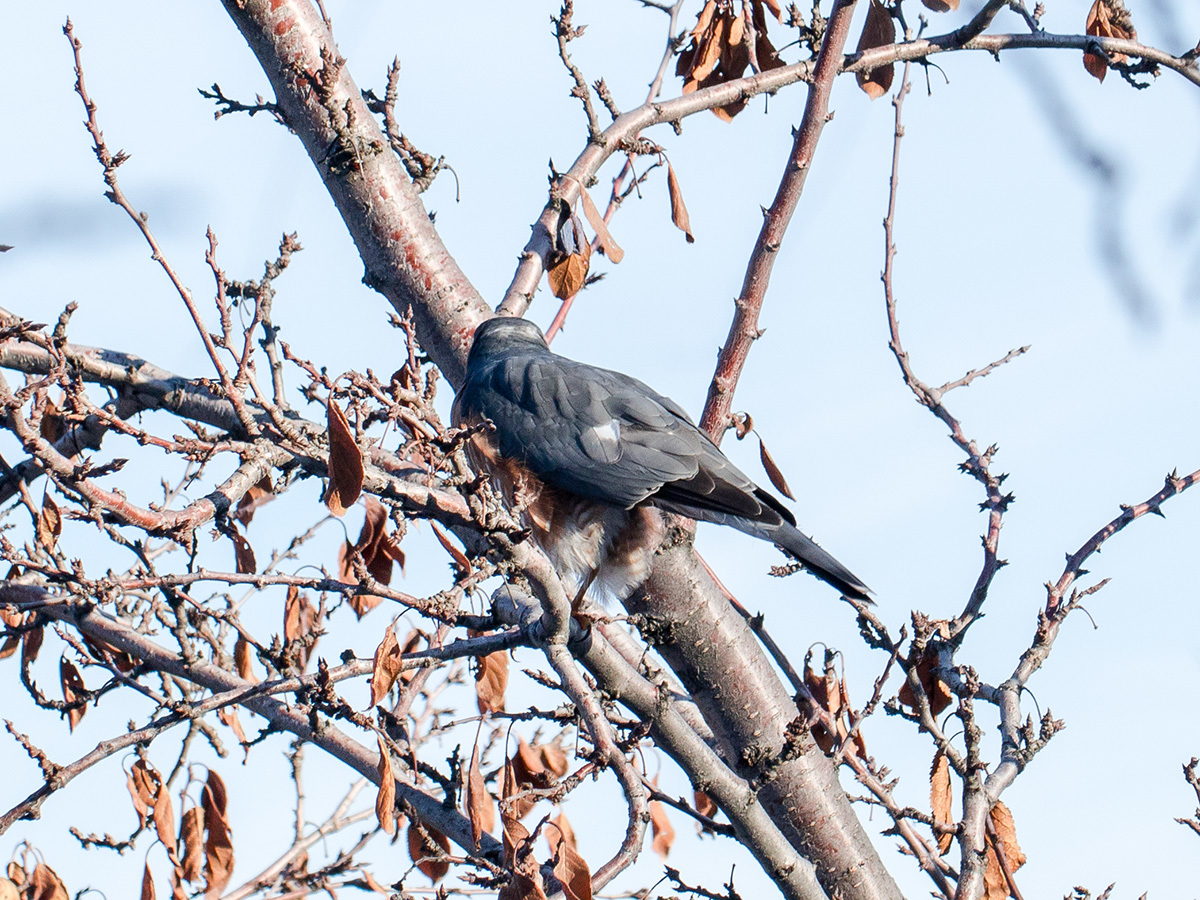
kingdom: Animalia
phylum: Chordata
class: Aves
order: Accipitriformes
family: Accipitridae
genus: Accipiter
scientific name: Accipiter nisus
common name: Eurasian sparrowhawk
